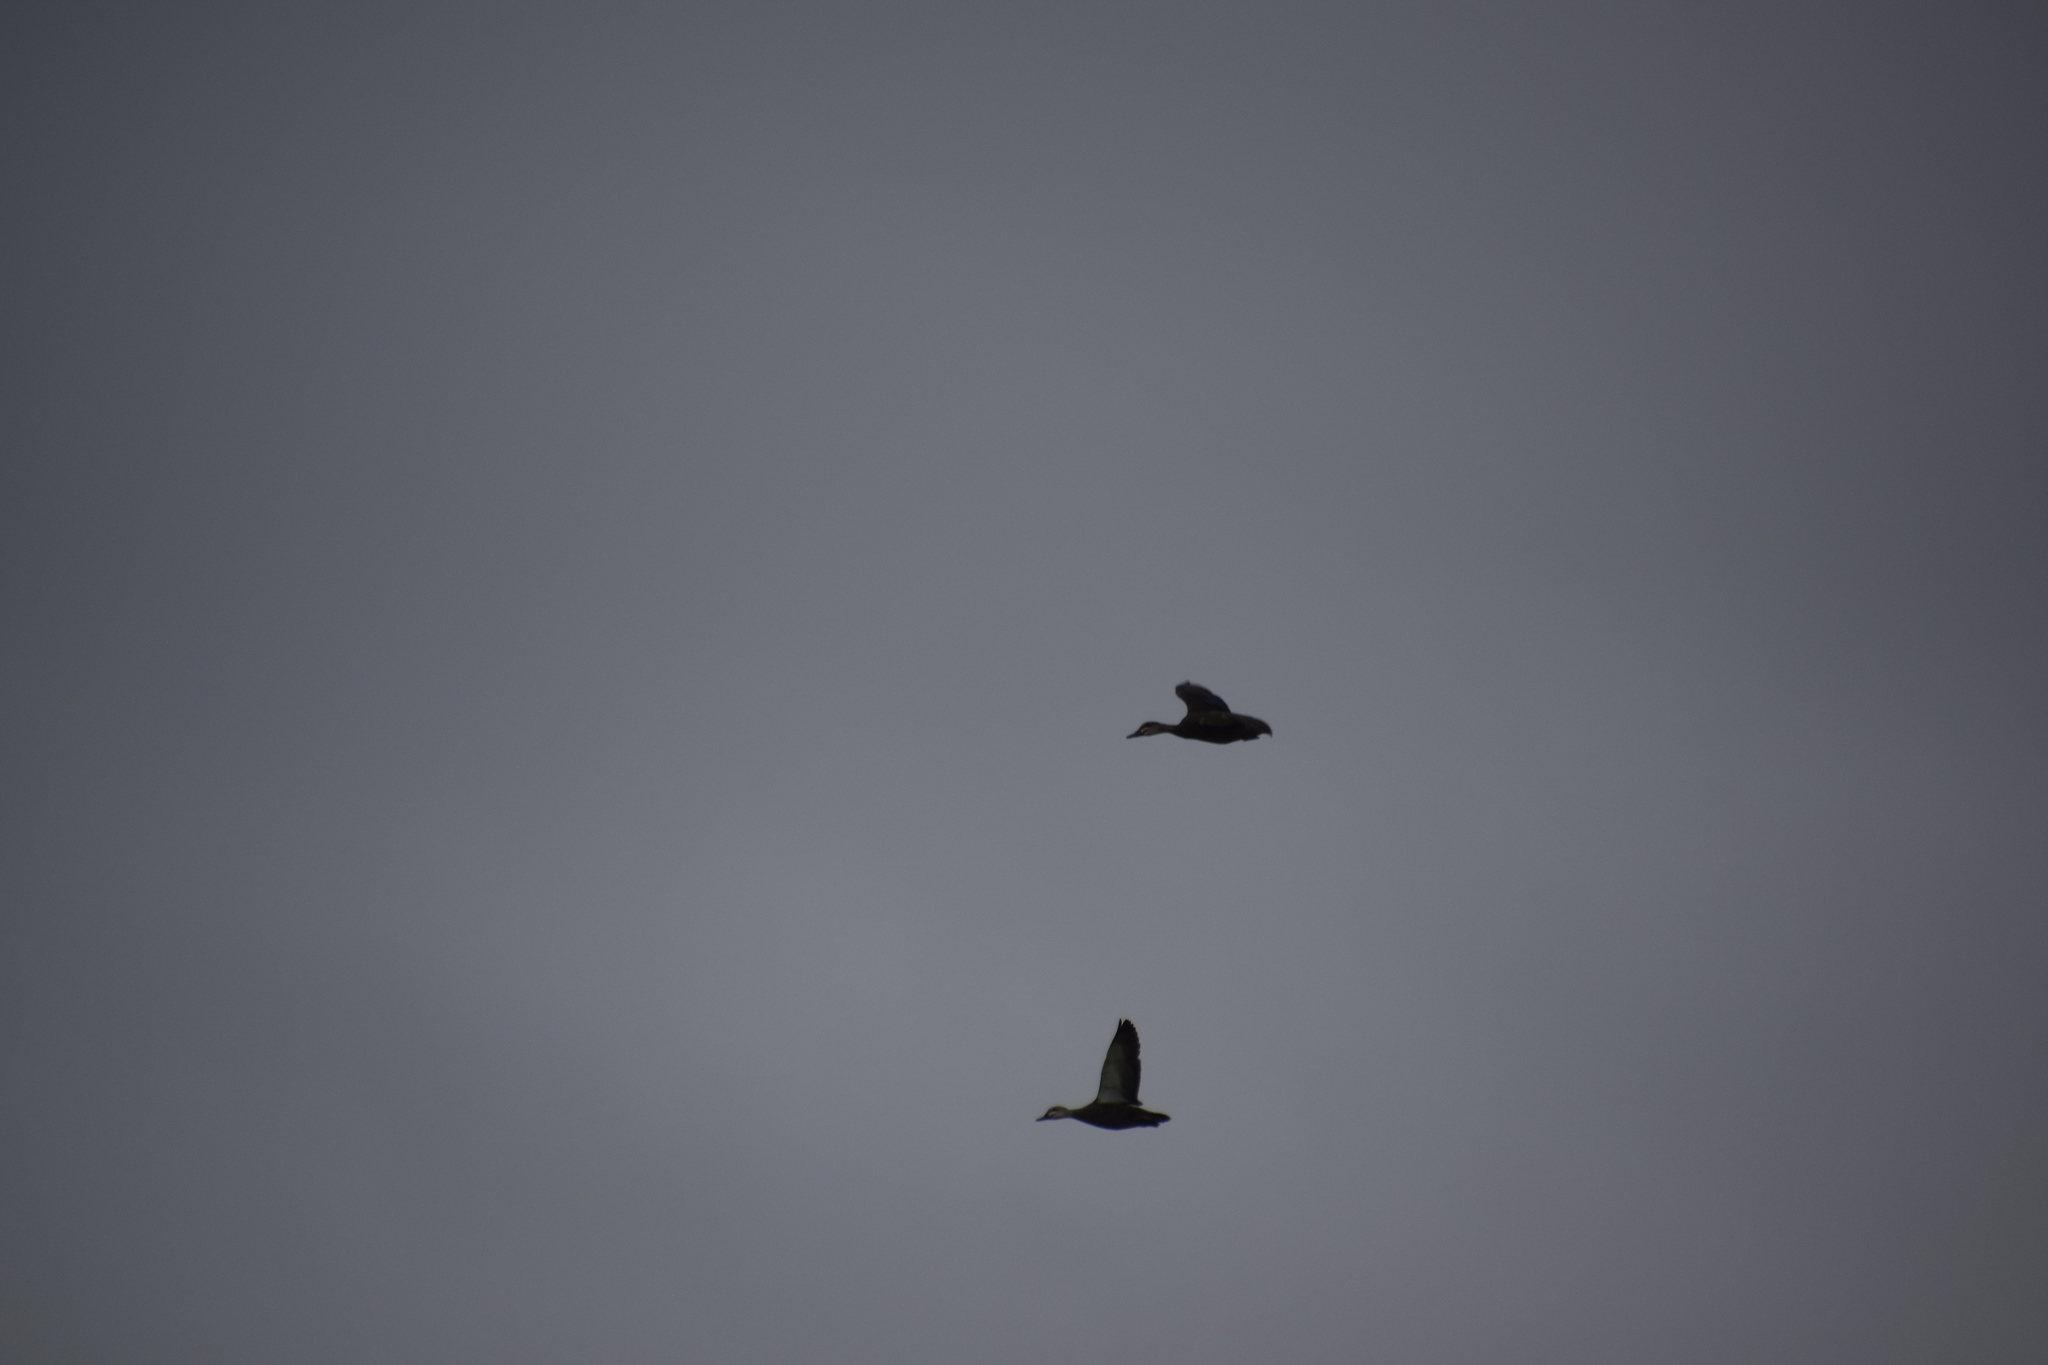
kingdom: Animalia
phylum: Chordata
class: Aves
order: Anseriformes
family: Anatidae
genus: Anas
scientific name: Anas superciliosa
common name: Pacific black duck
